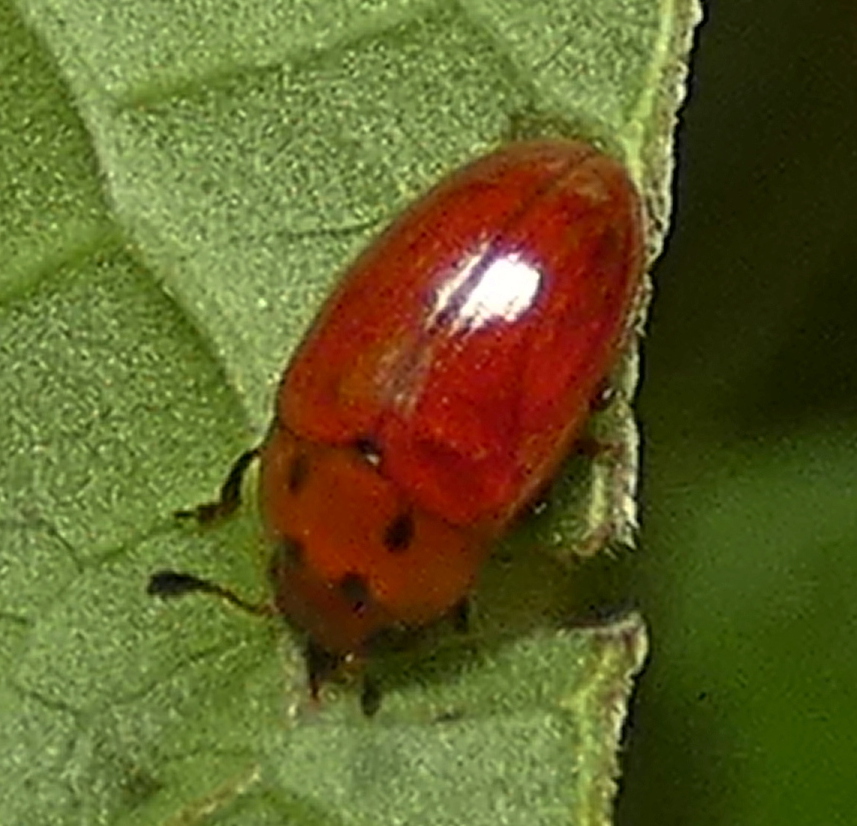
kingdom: Animalia
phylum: Arthropoda
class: Insecta
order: Coleoptera
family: Erotylidae
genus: Mycotretus
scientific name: Mycotretus minutus
